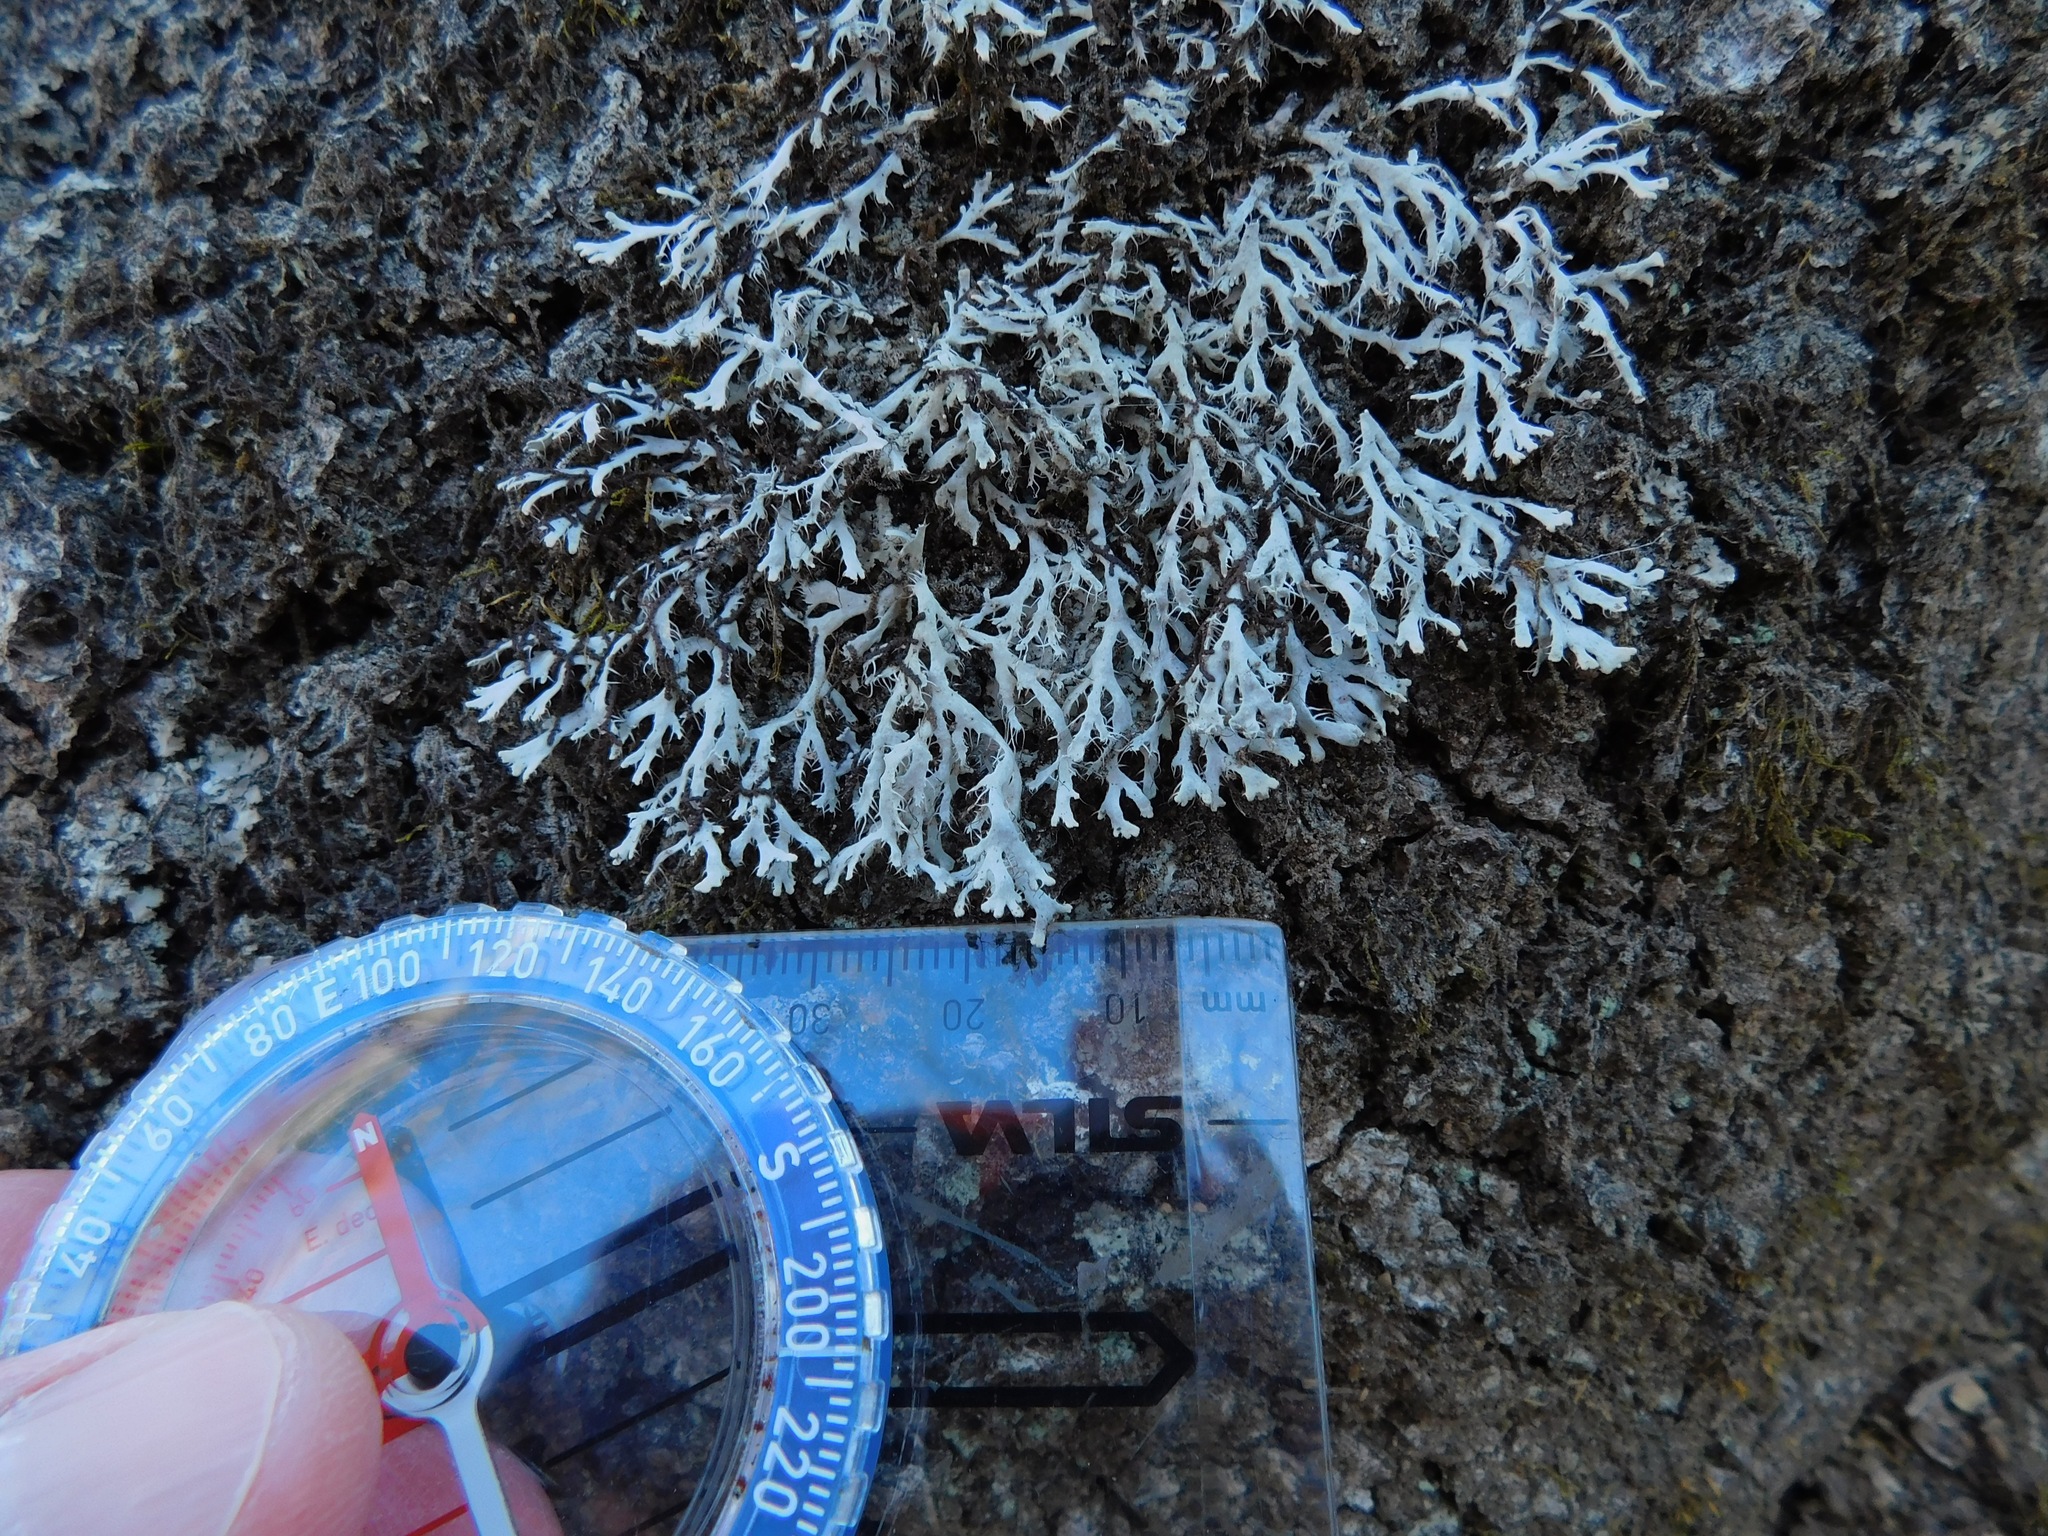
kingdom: Fungi
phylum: Ascomycota
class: Lecanoromycetes
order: Caliciales
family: Physciaceae
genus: Leucodermia
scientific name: Leucodermia appalachensis
